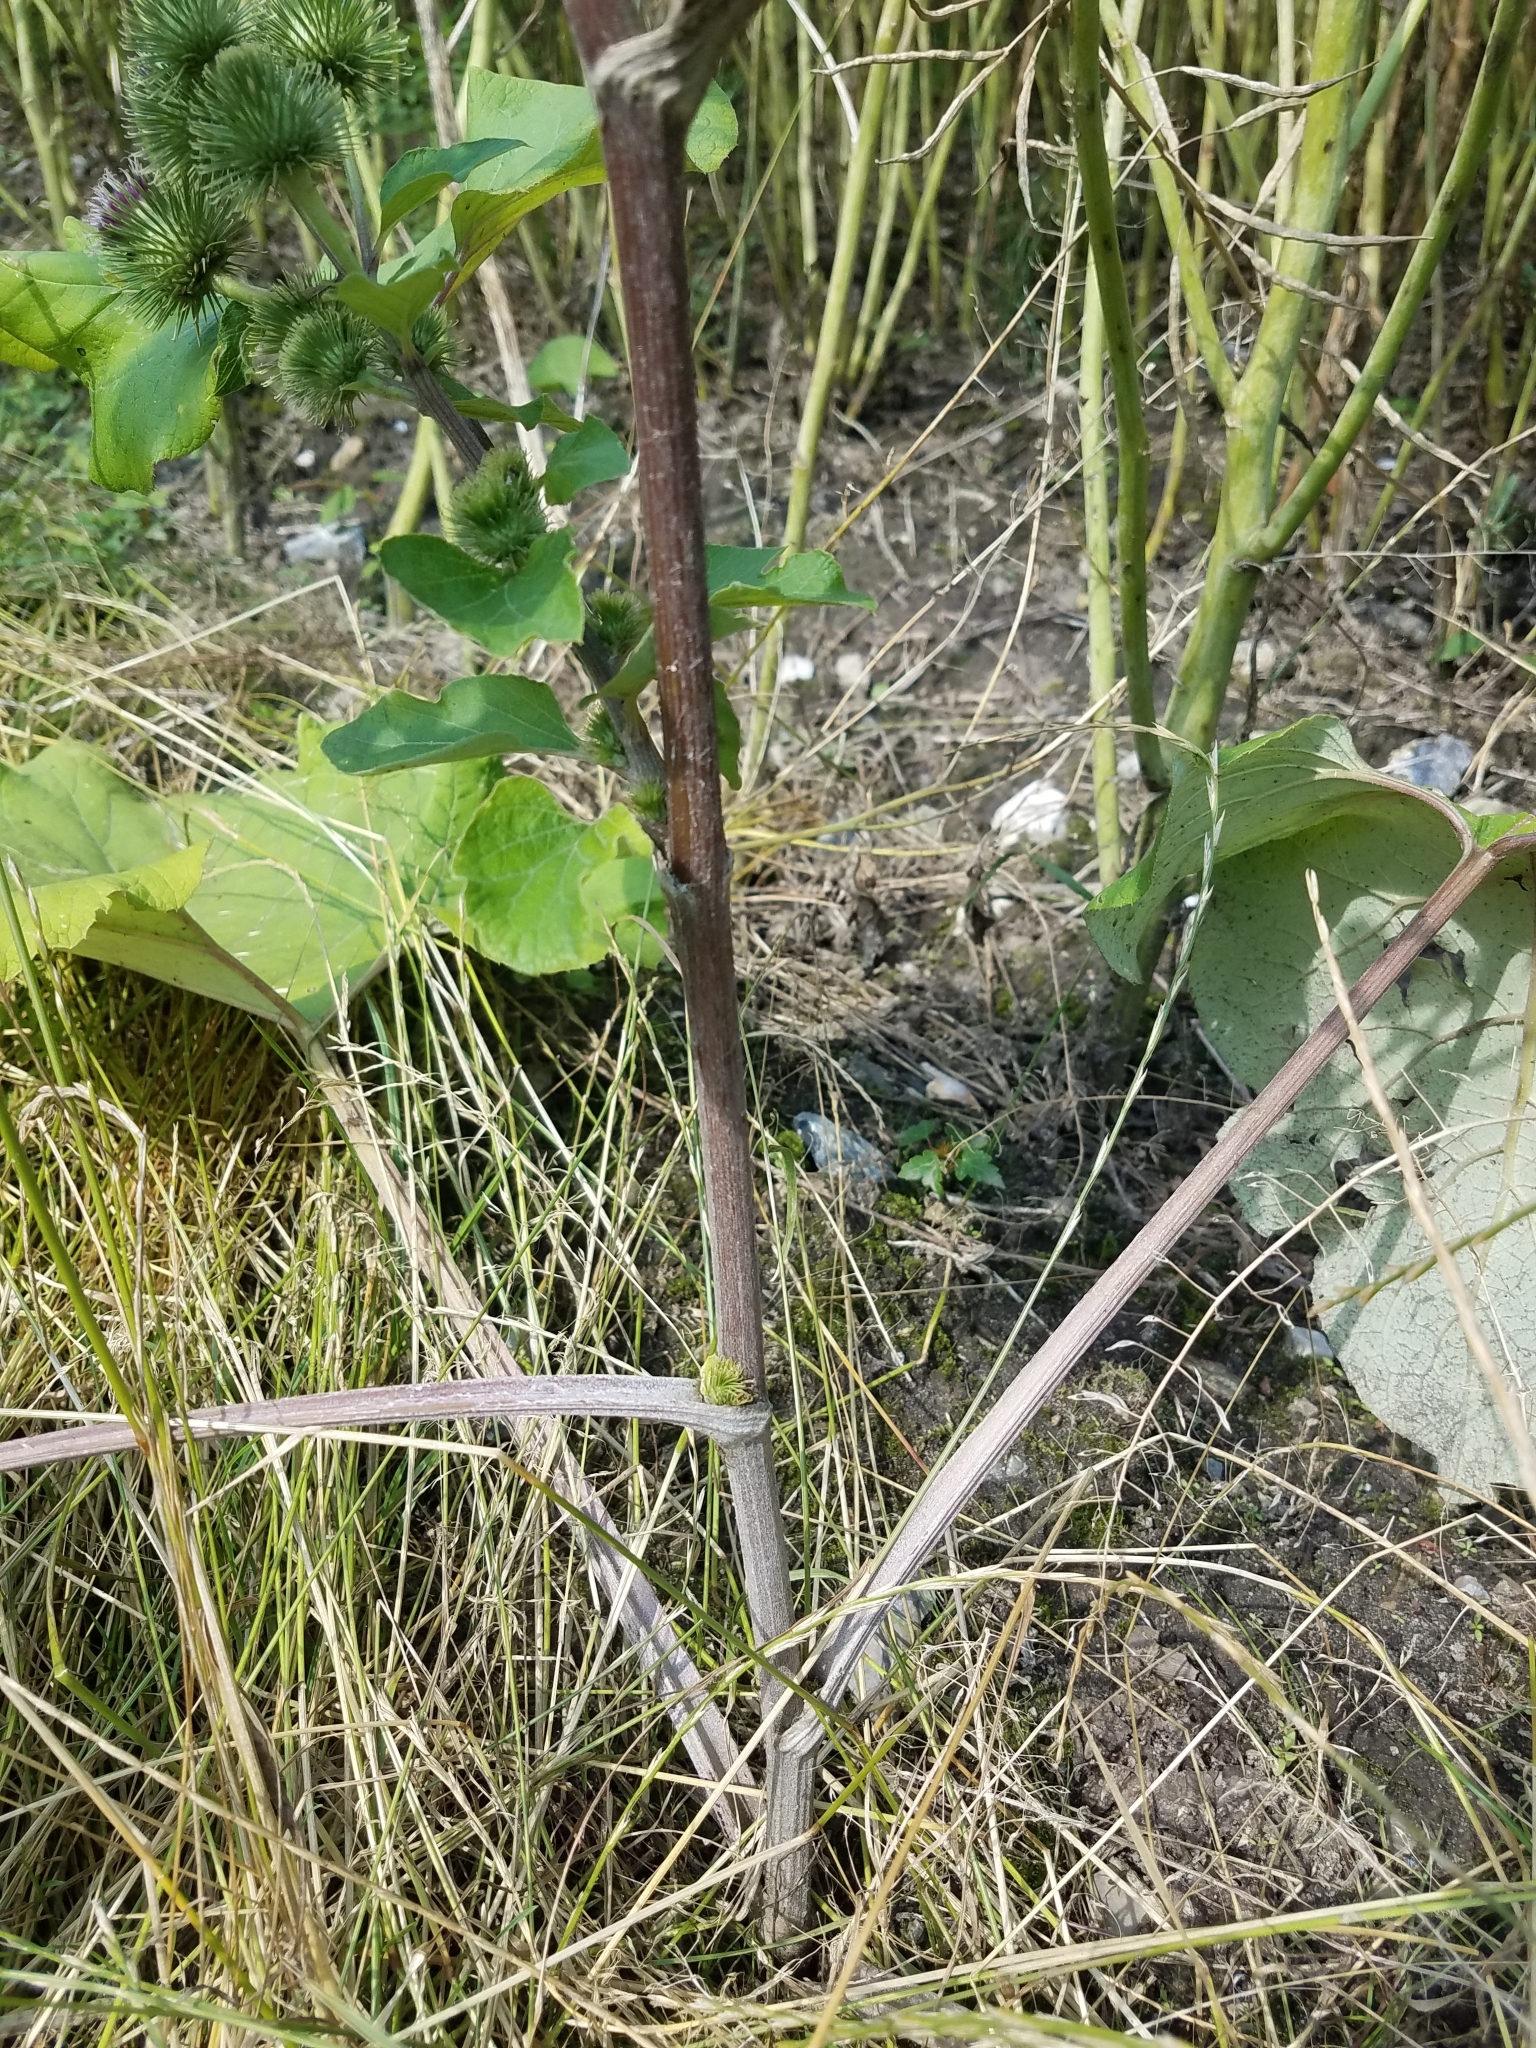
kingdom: Plantae
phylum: Tracheophyta
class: Magnoliopsida
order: Asterales
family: Asteraceae
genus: Arctium
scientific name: Arctium lappa
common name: Greater burdock
